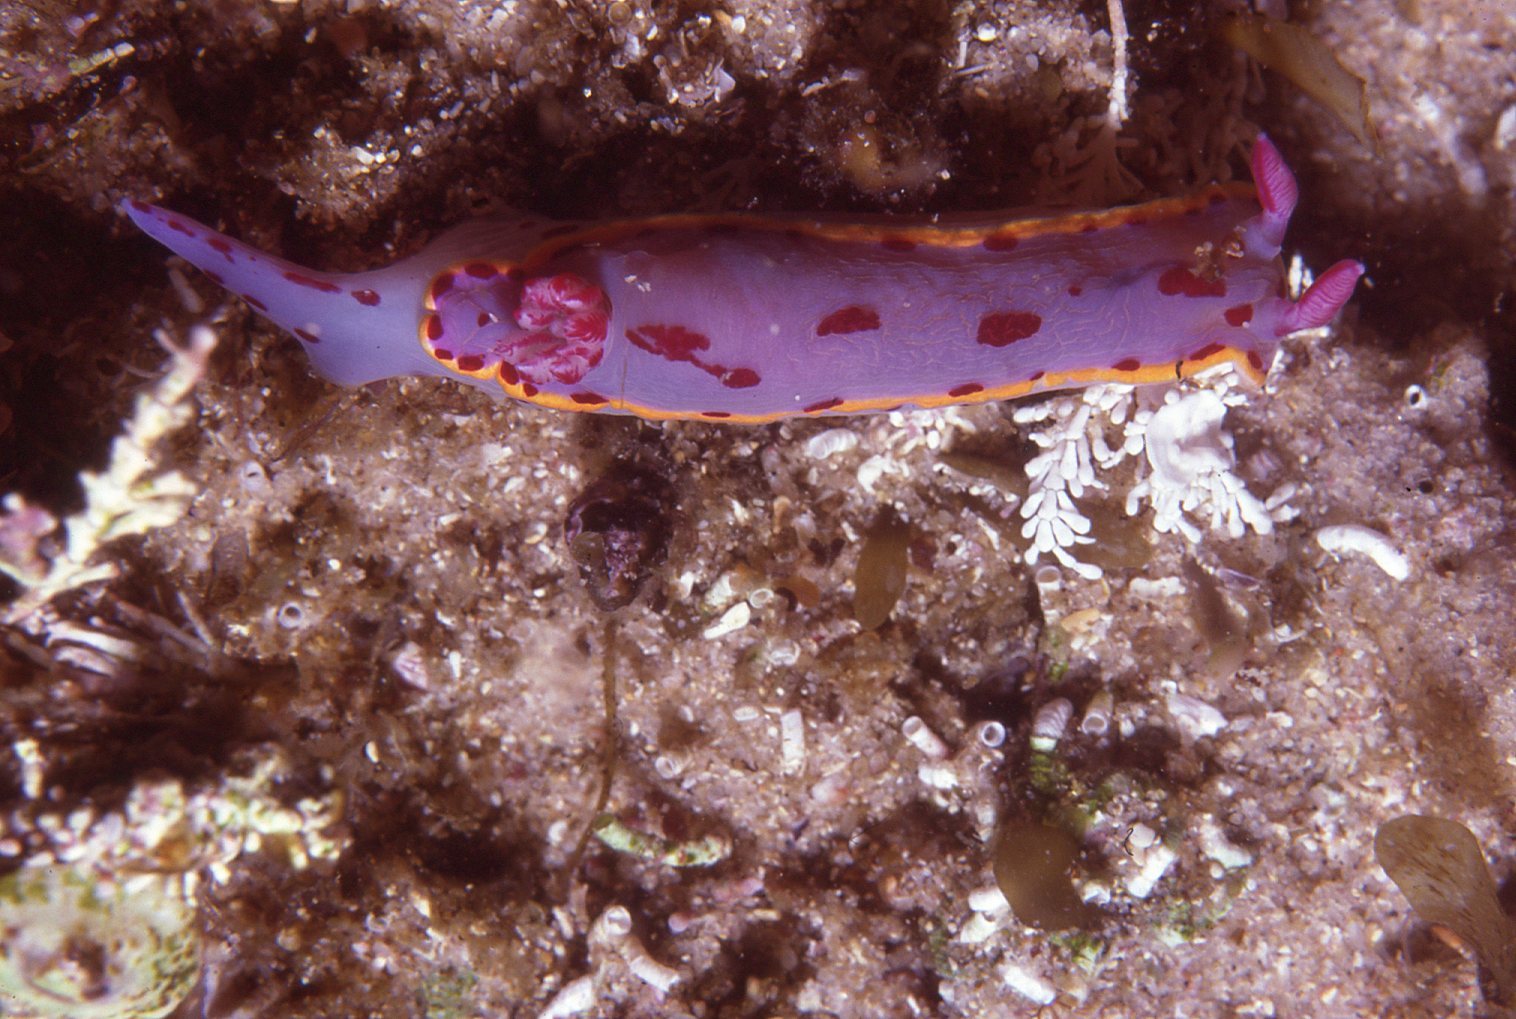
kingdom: Animalia
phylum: Mollusca
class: Gastropoda
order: Nudibranchia
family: Chromodorididae
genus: Hypselodoris
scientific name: Hypselodoris bennetti
